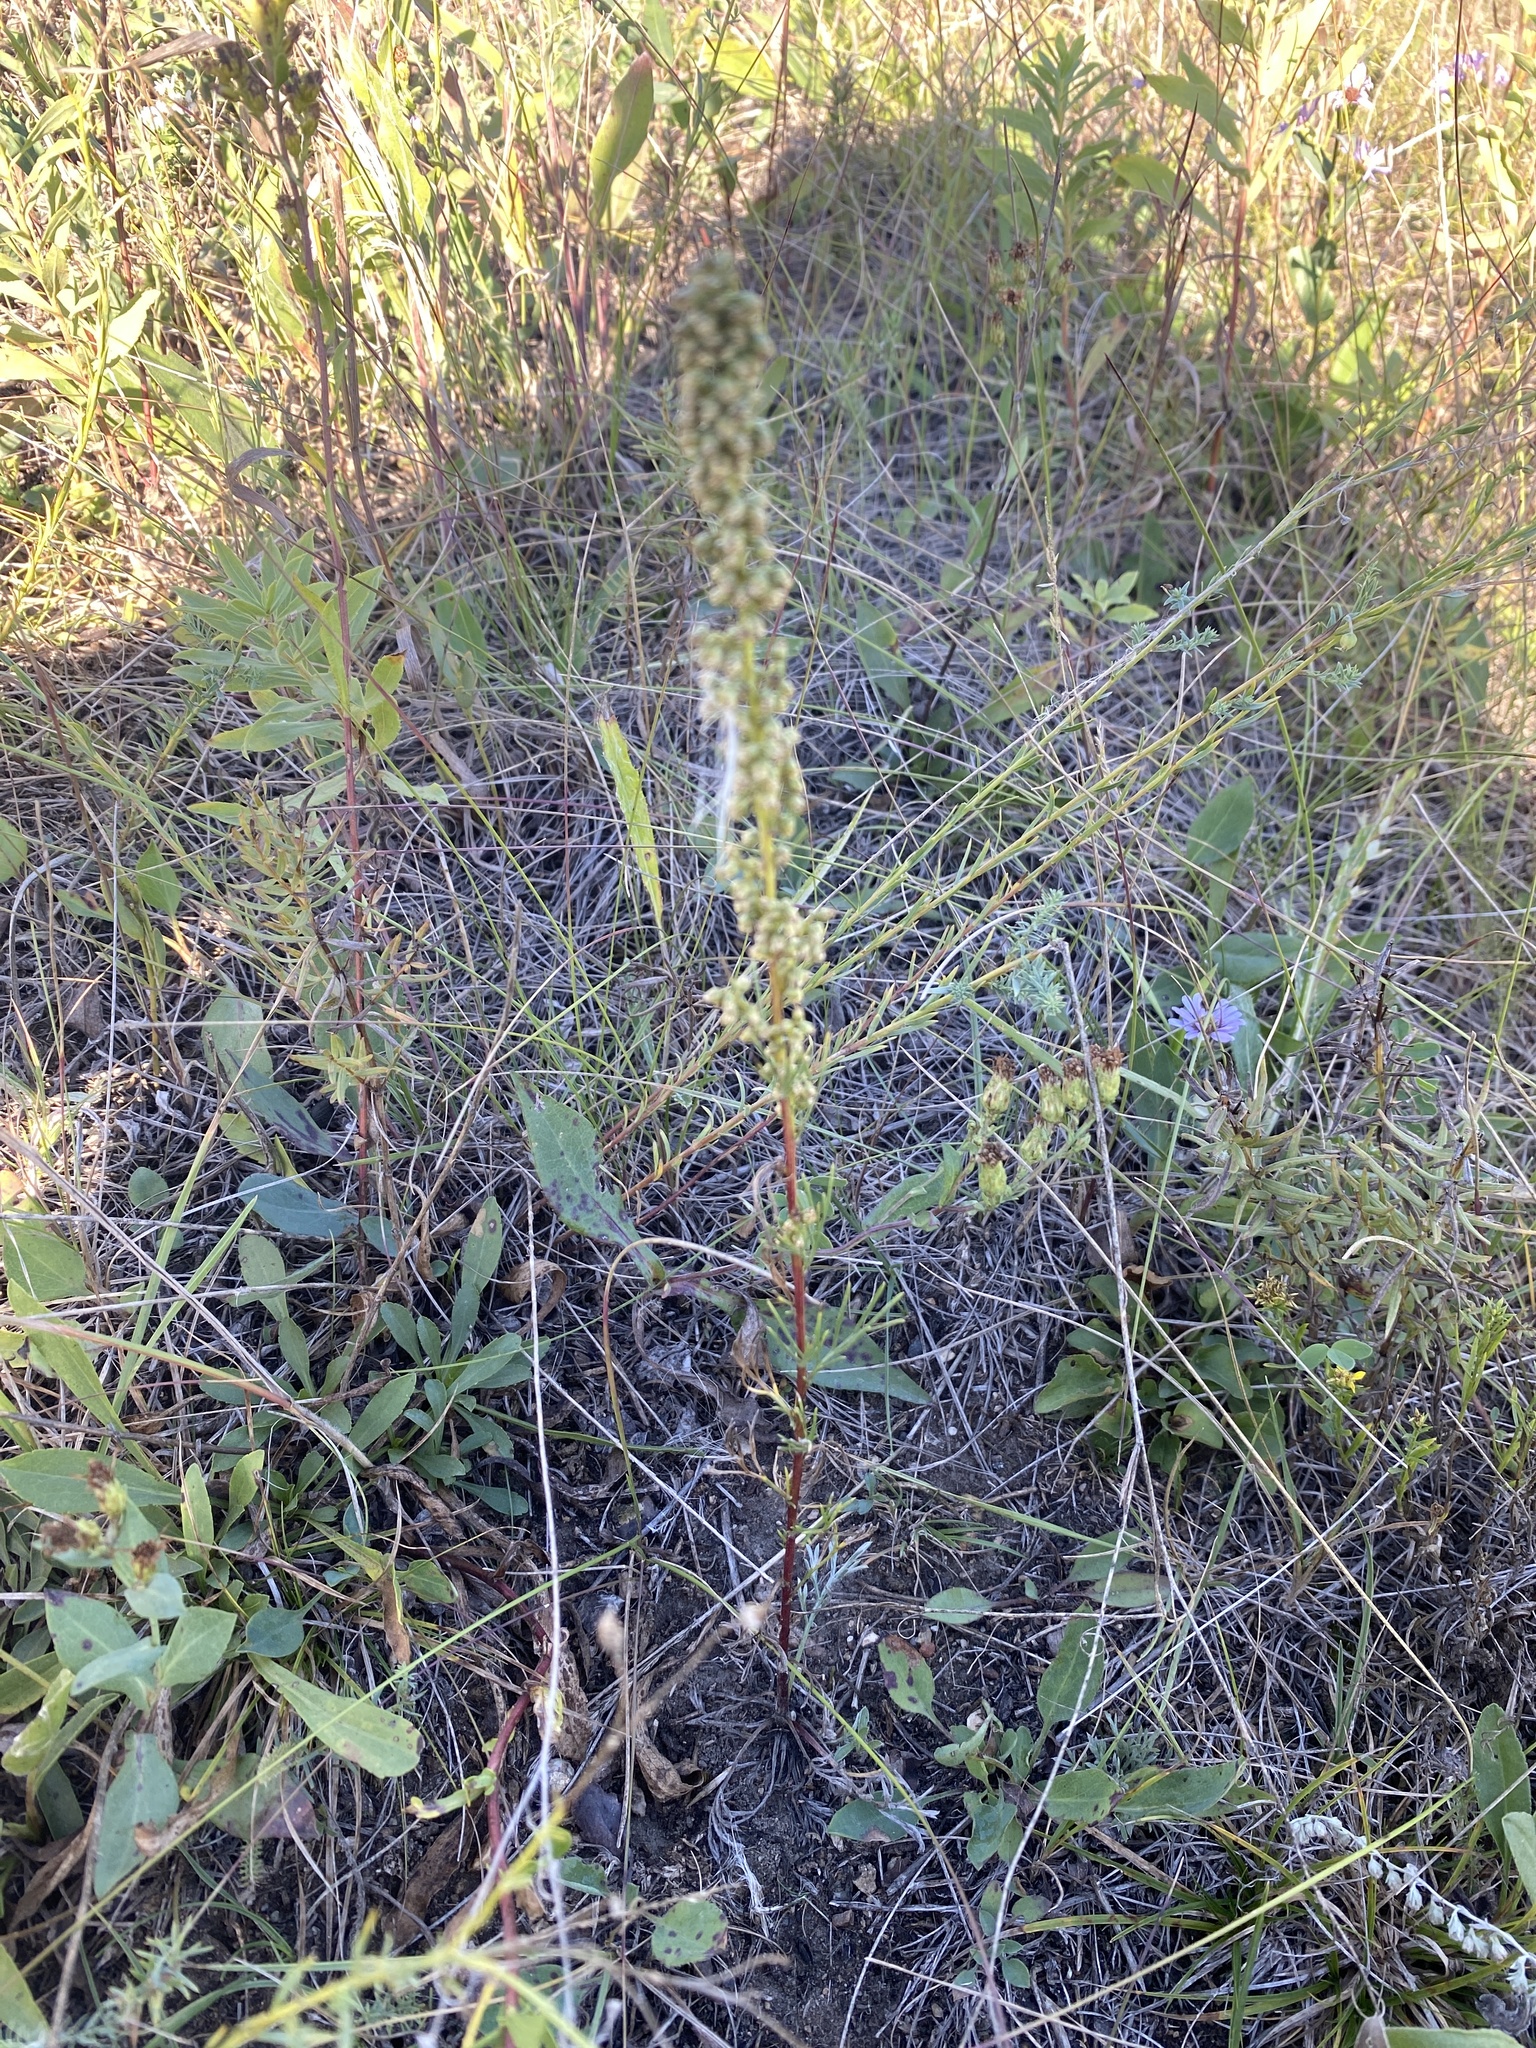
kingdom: Plantae
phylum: Tracheophyta
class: Magnoliopsida
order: Asterales
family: Asteraceae
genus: Artemisia
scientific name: Artemisia campestris
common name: Field wormwood
